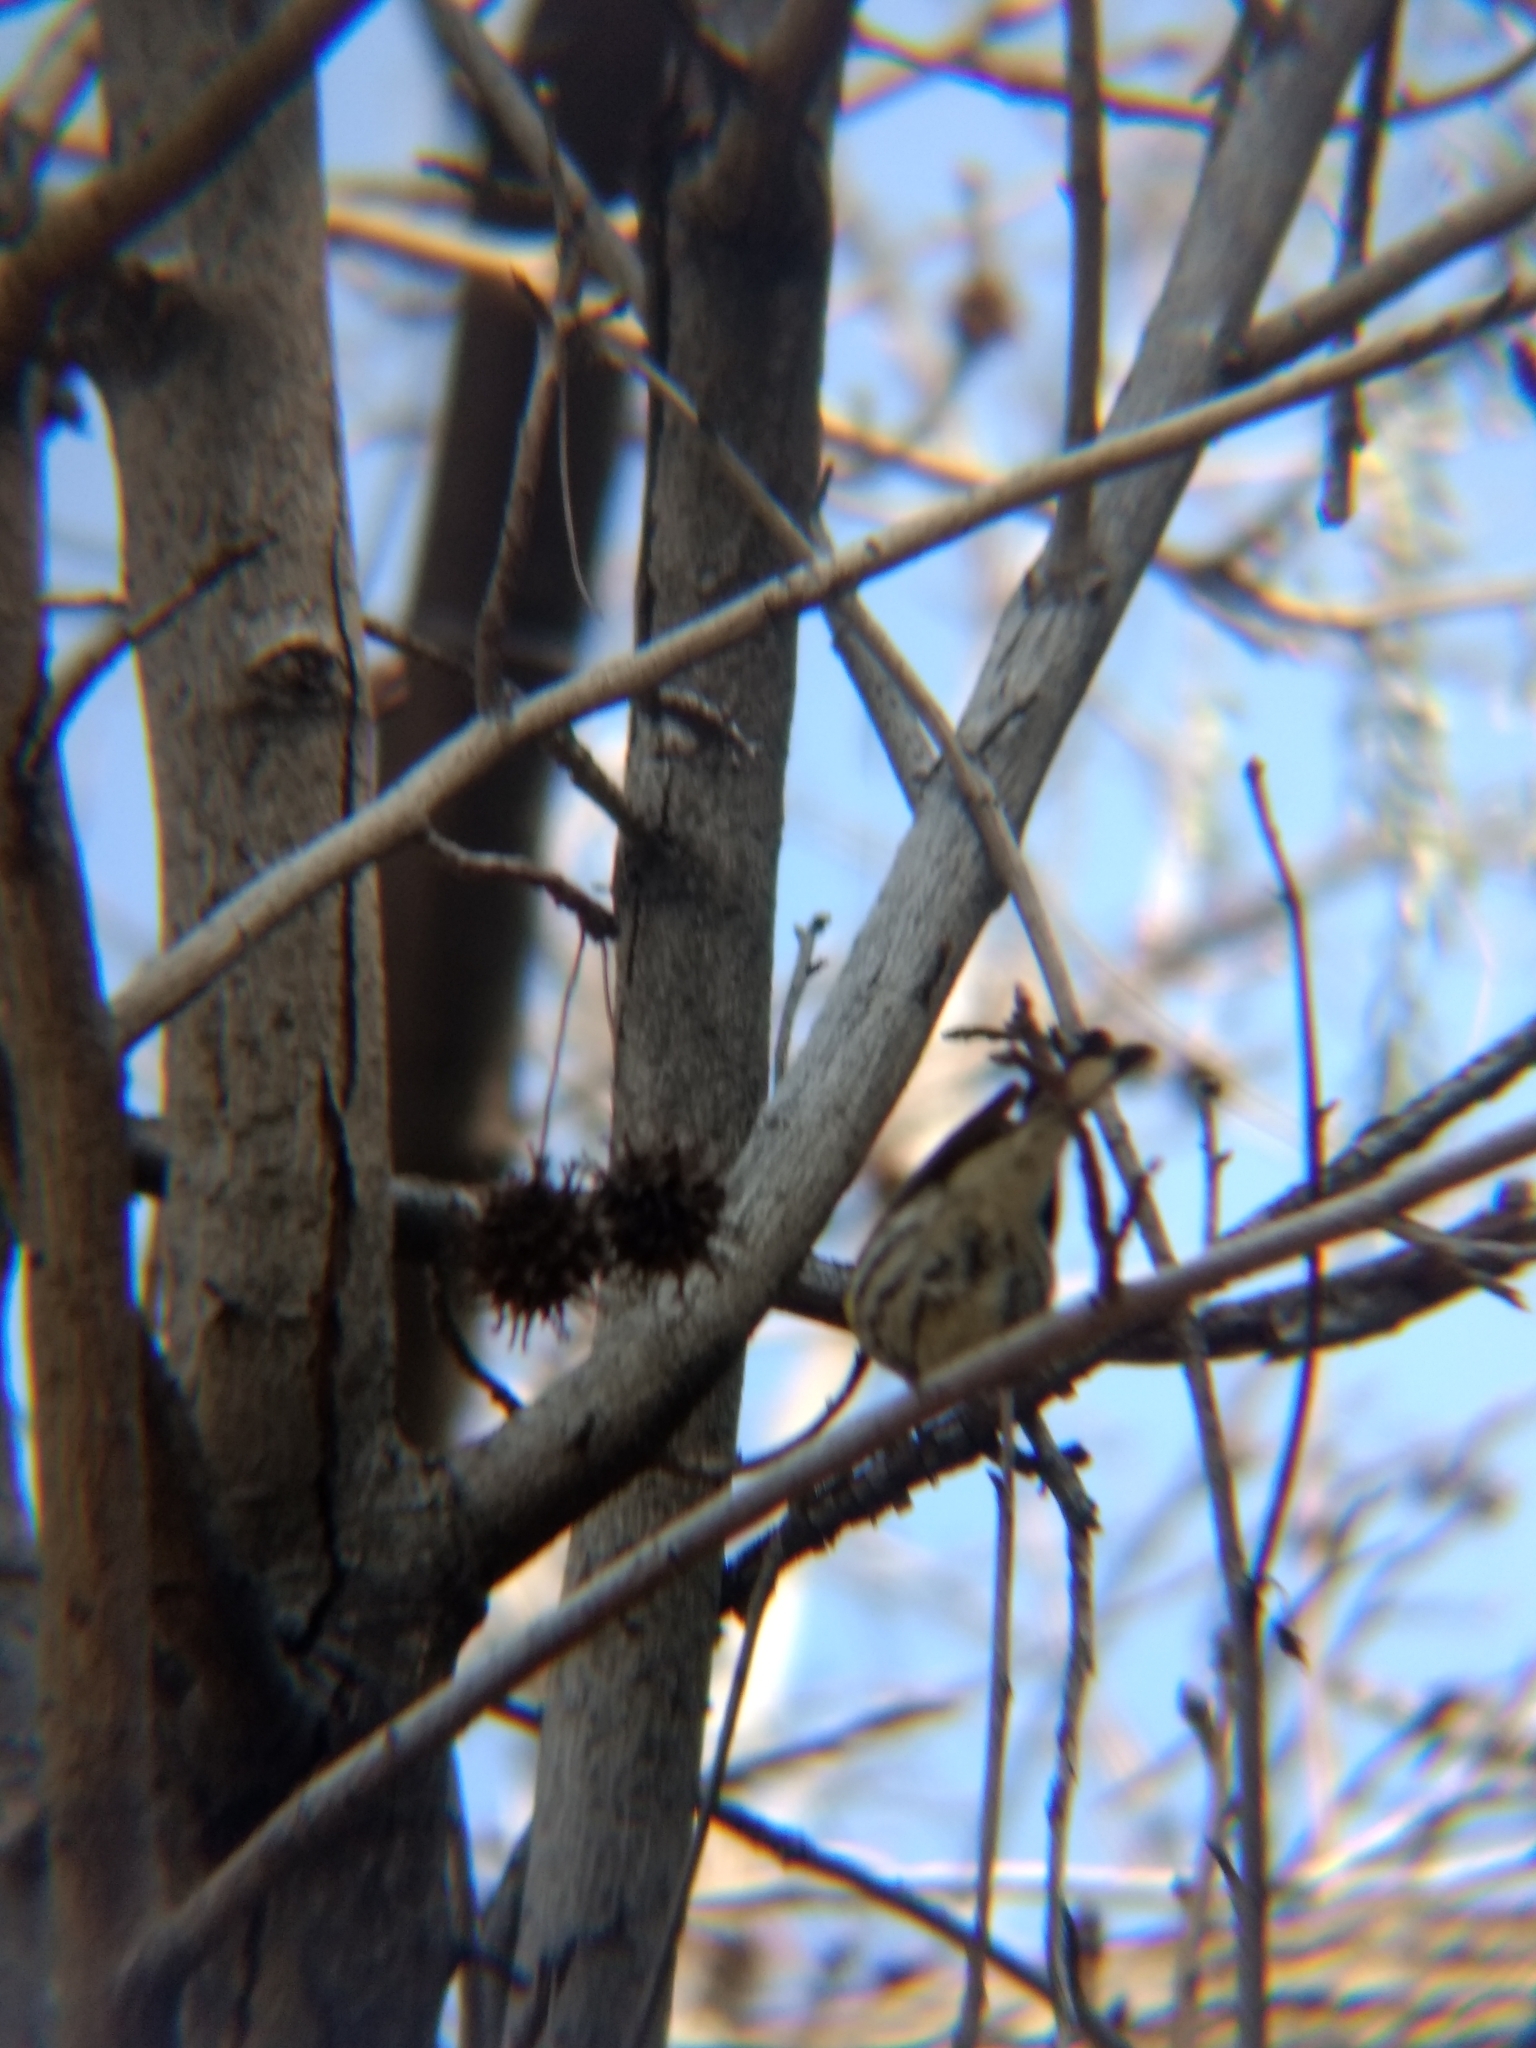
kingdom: Animalia
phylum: Chordata
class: Aves
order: Passeriformes
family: Parulidae
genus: Setophaga
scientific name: Setophaga coronata
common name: Myrtle warbler
